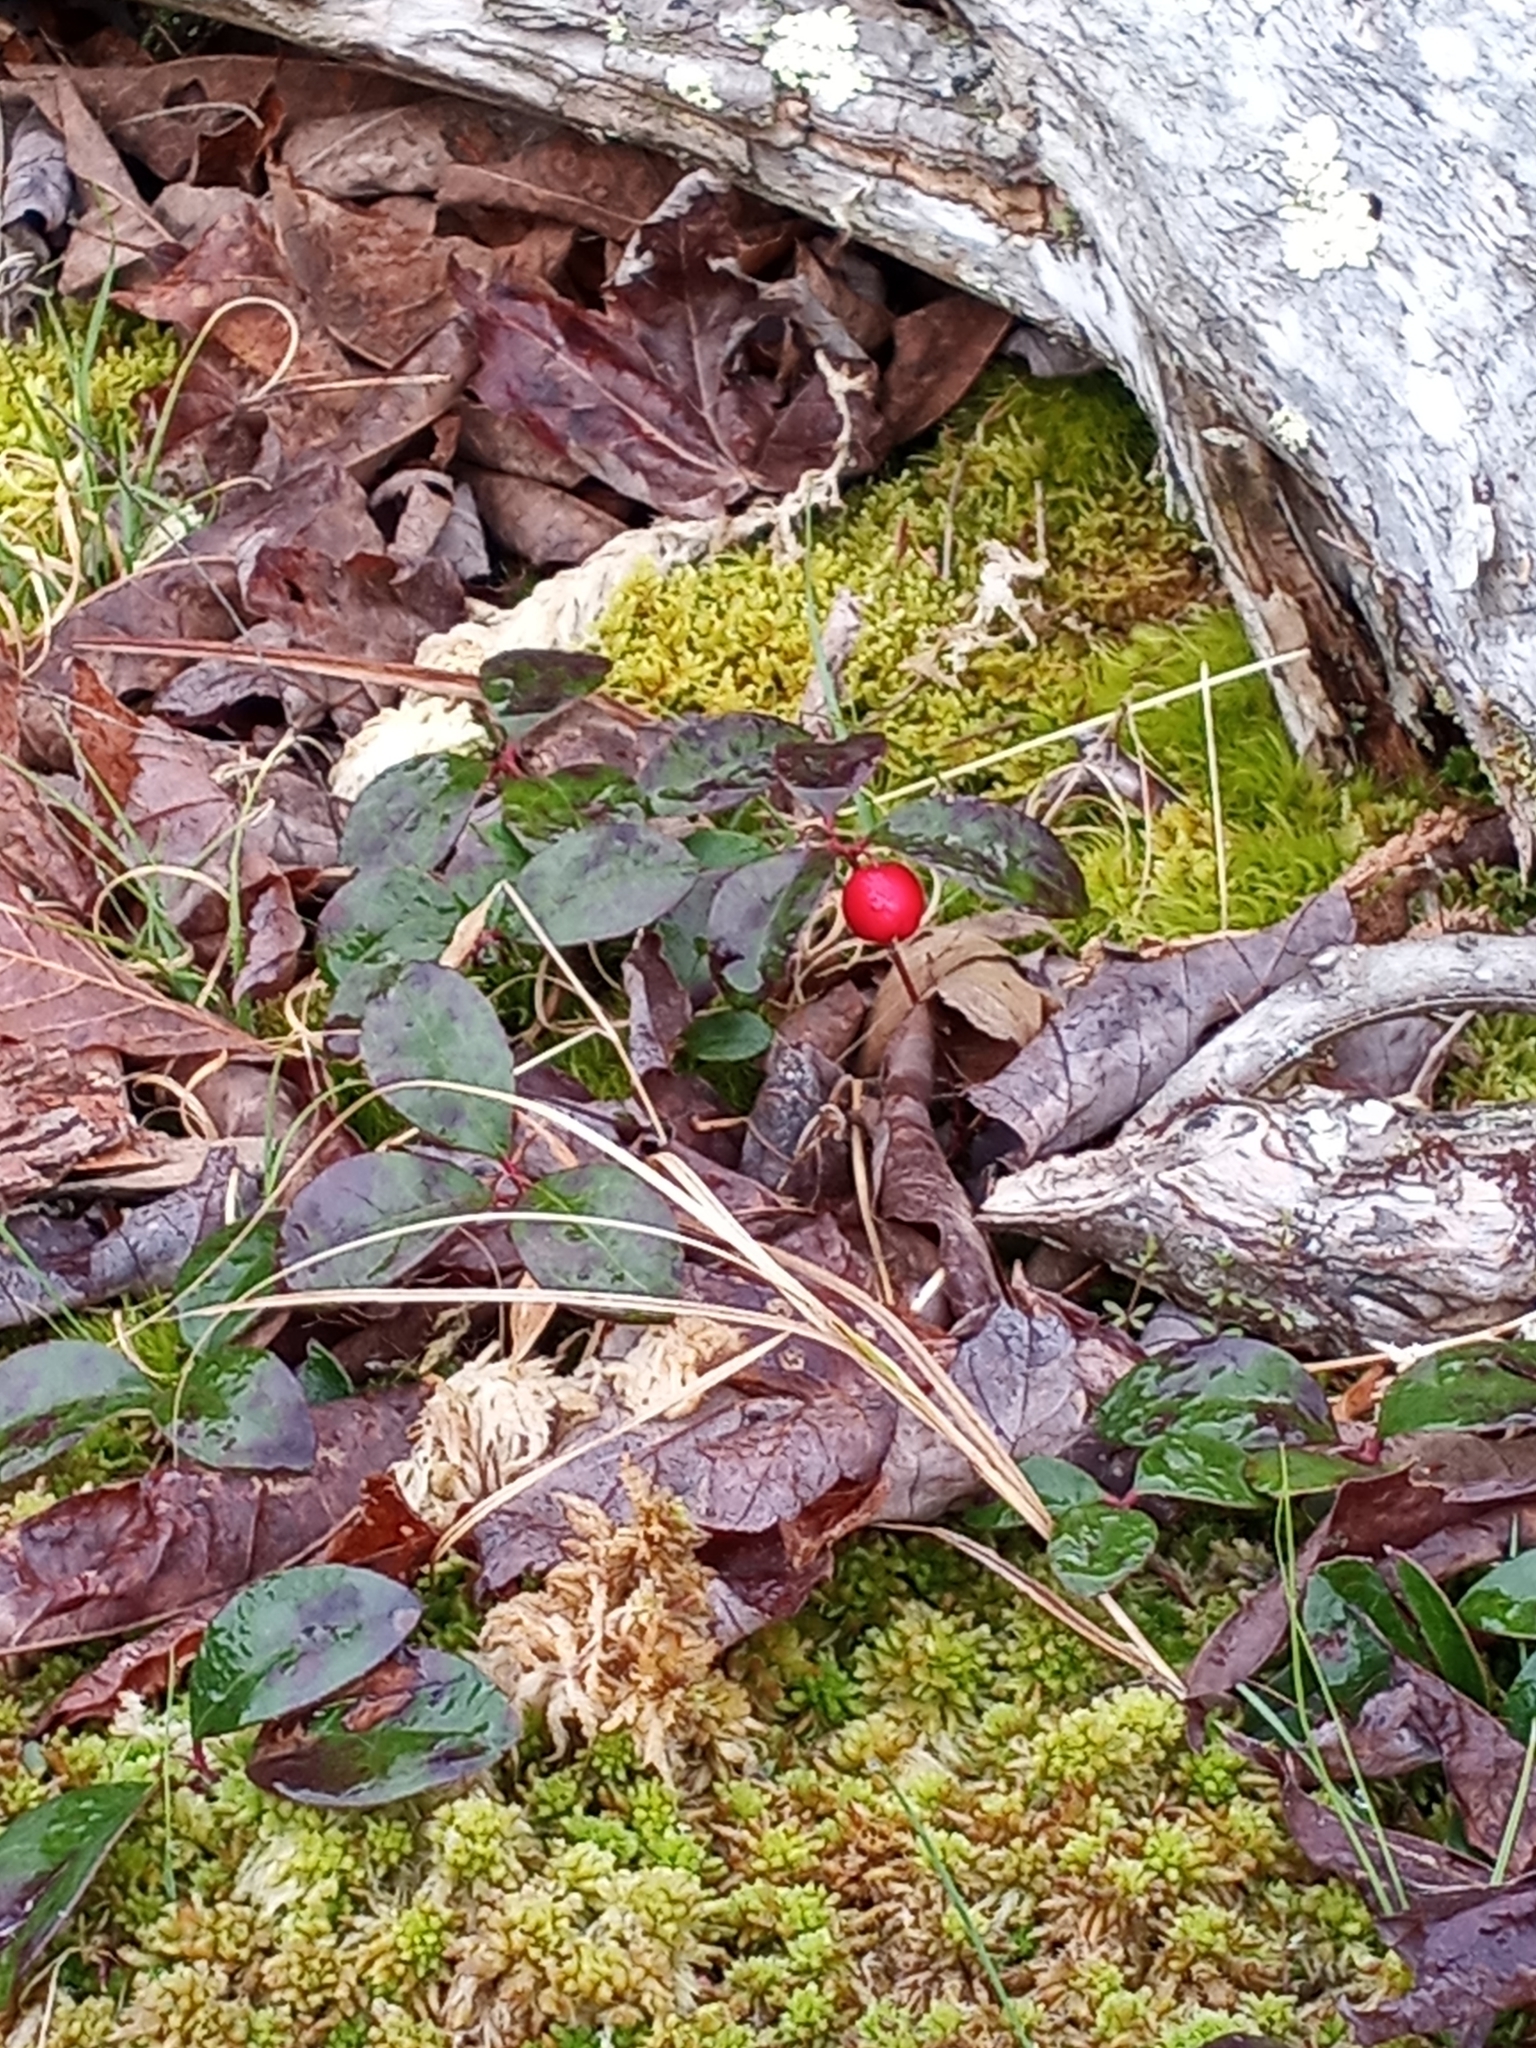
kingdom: Plantae
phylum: Tracheophyta
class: Magnoliopsida
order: Ericales
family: Ericaceae
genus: Gaultheria
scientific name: Gaultheria procumbens
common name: Checkerberry
